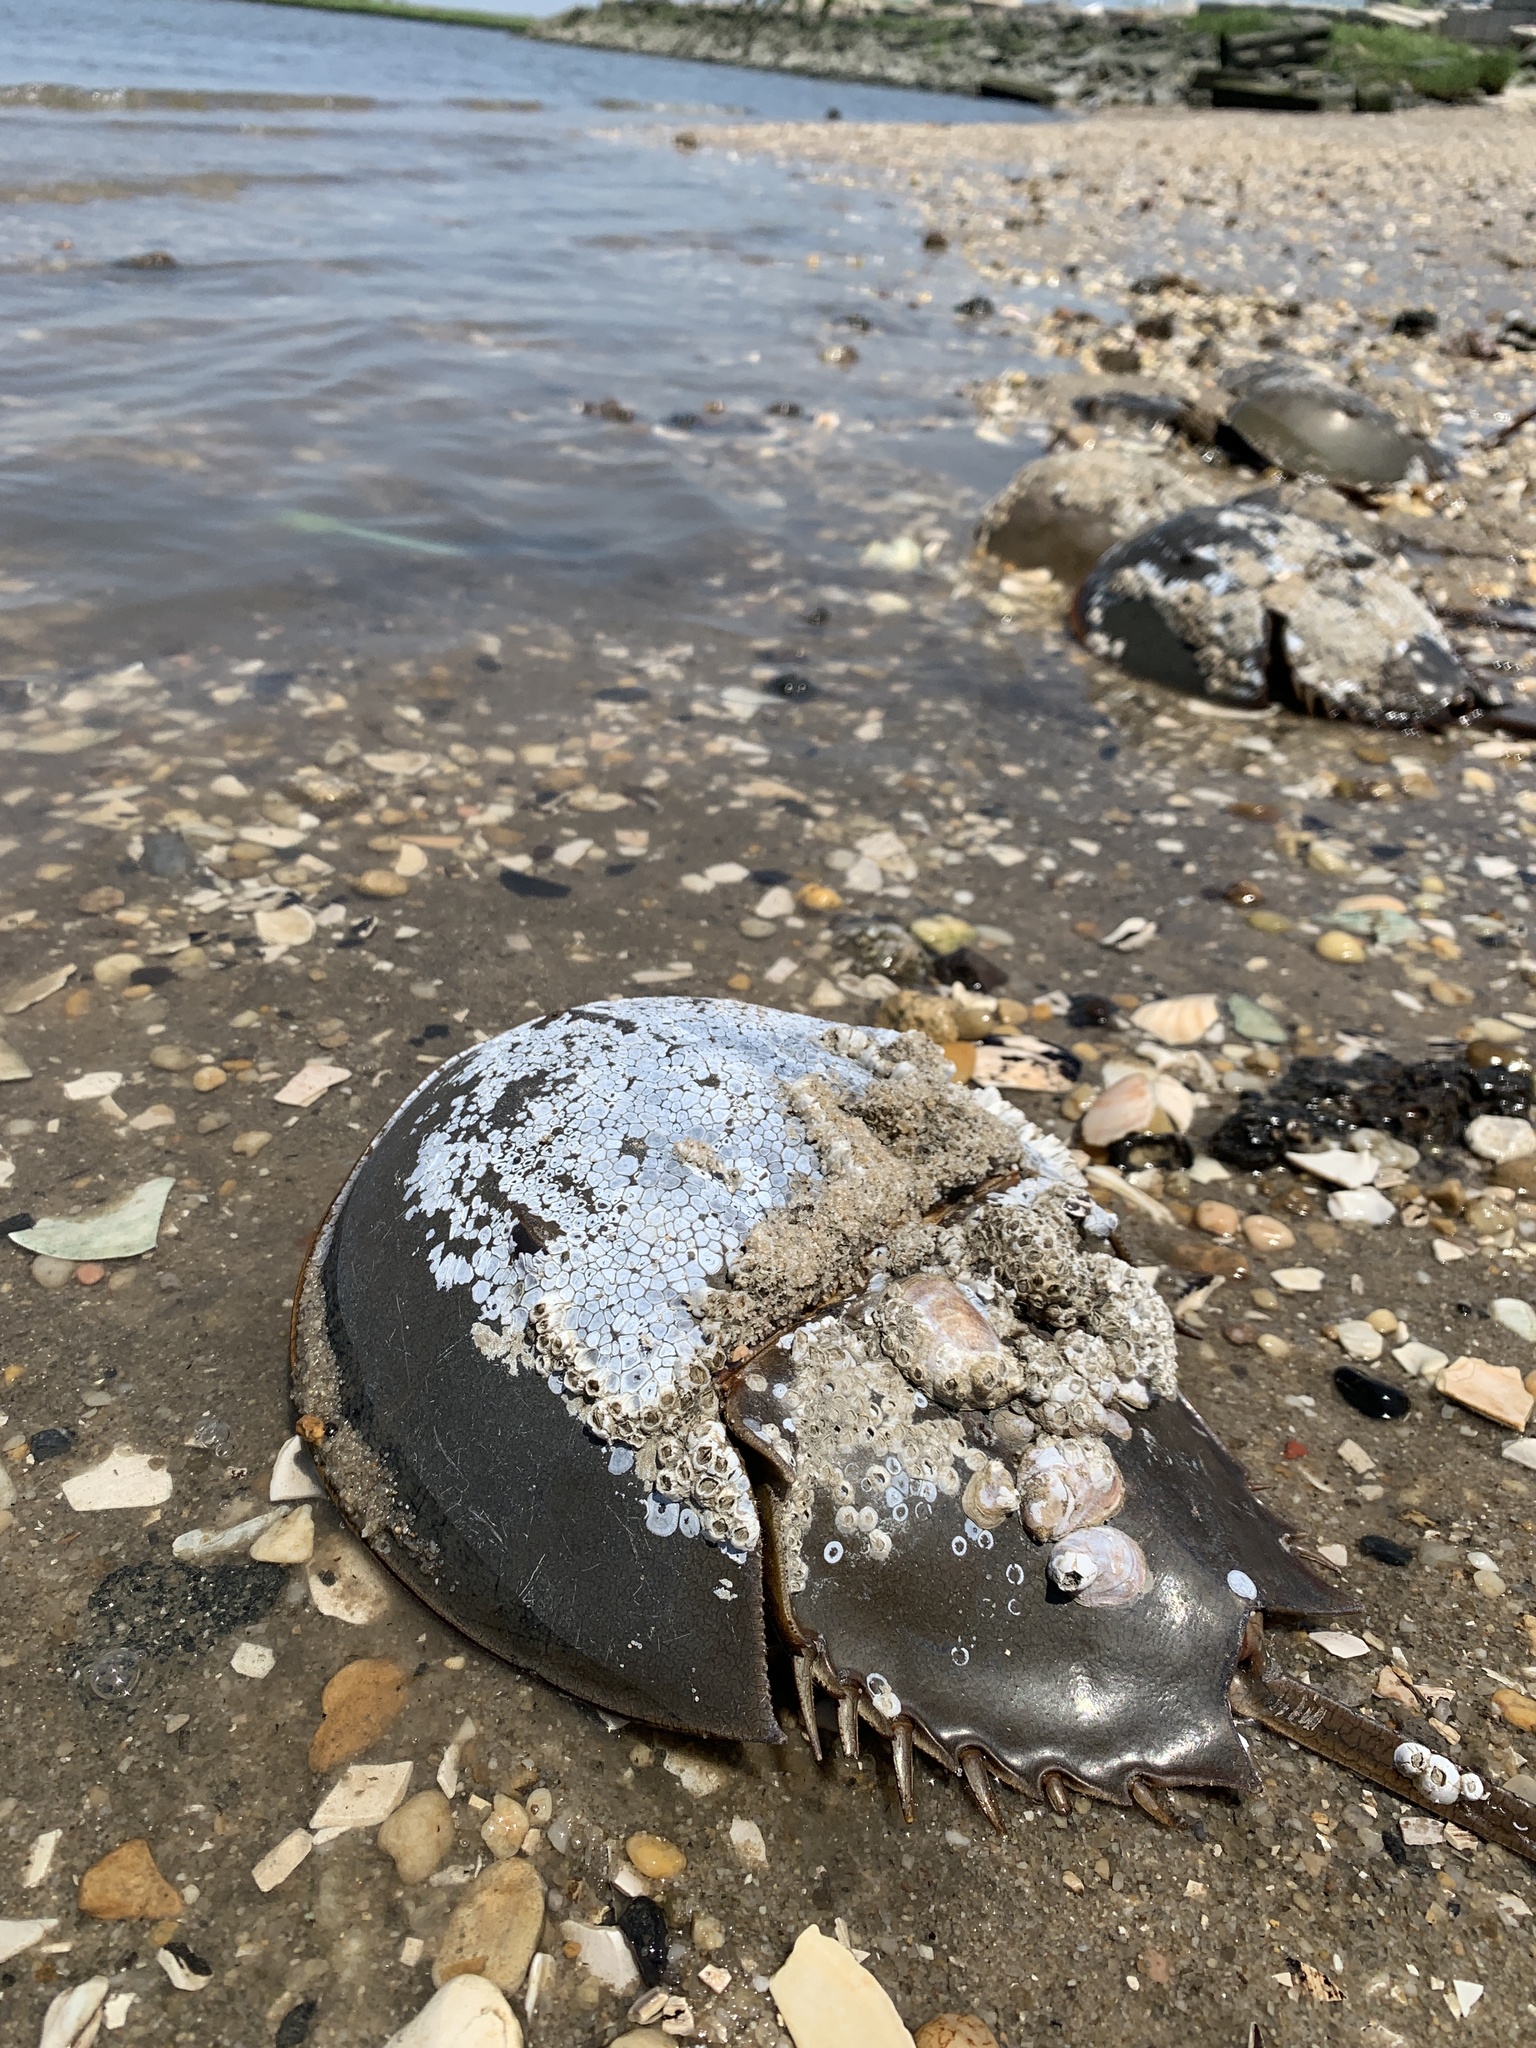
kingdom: Animalia
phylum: Arthropoda
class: Merostomata
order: Xiphosurida
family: Limulidae
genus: Limulus
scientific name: Limulus polyphemus
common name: Horseshoe crab
